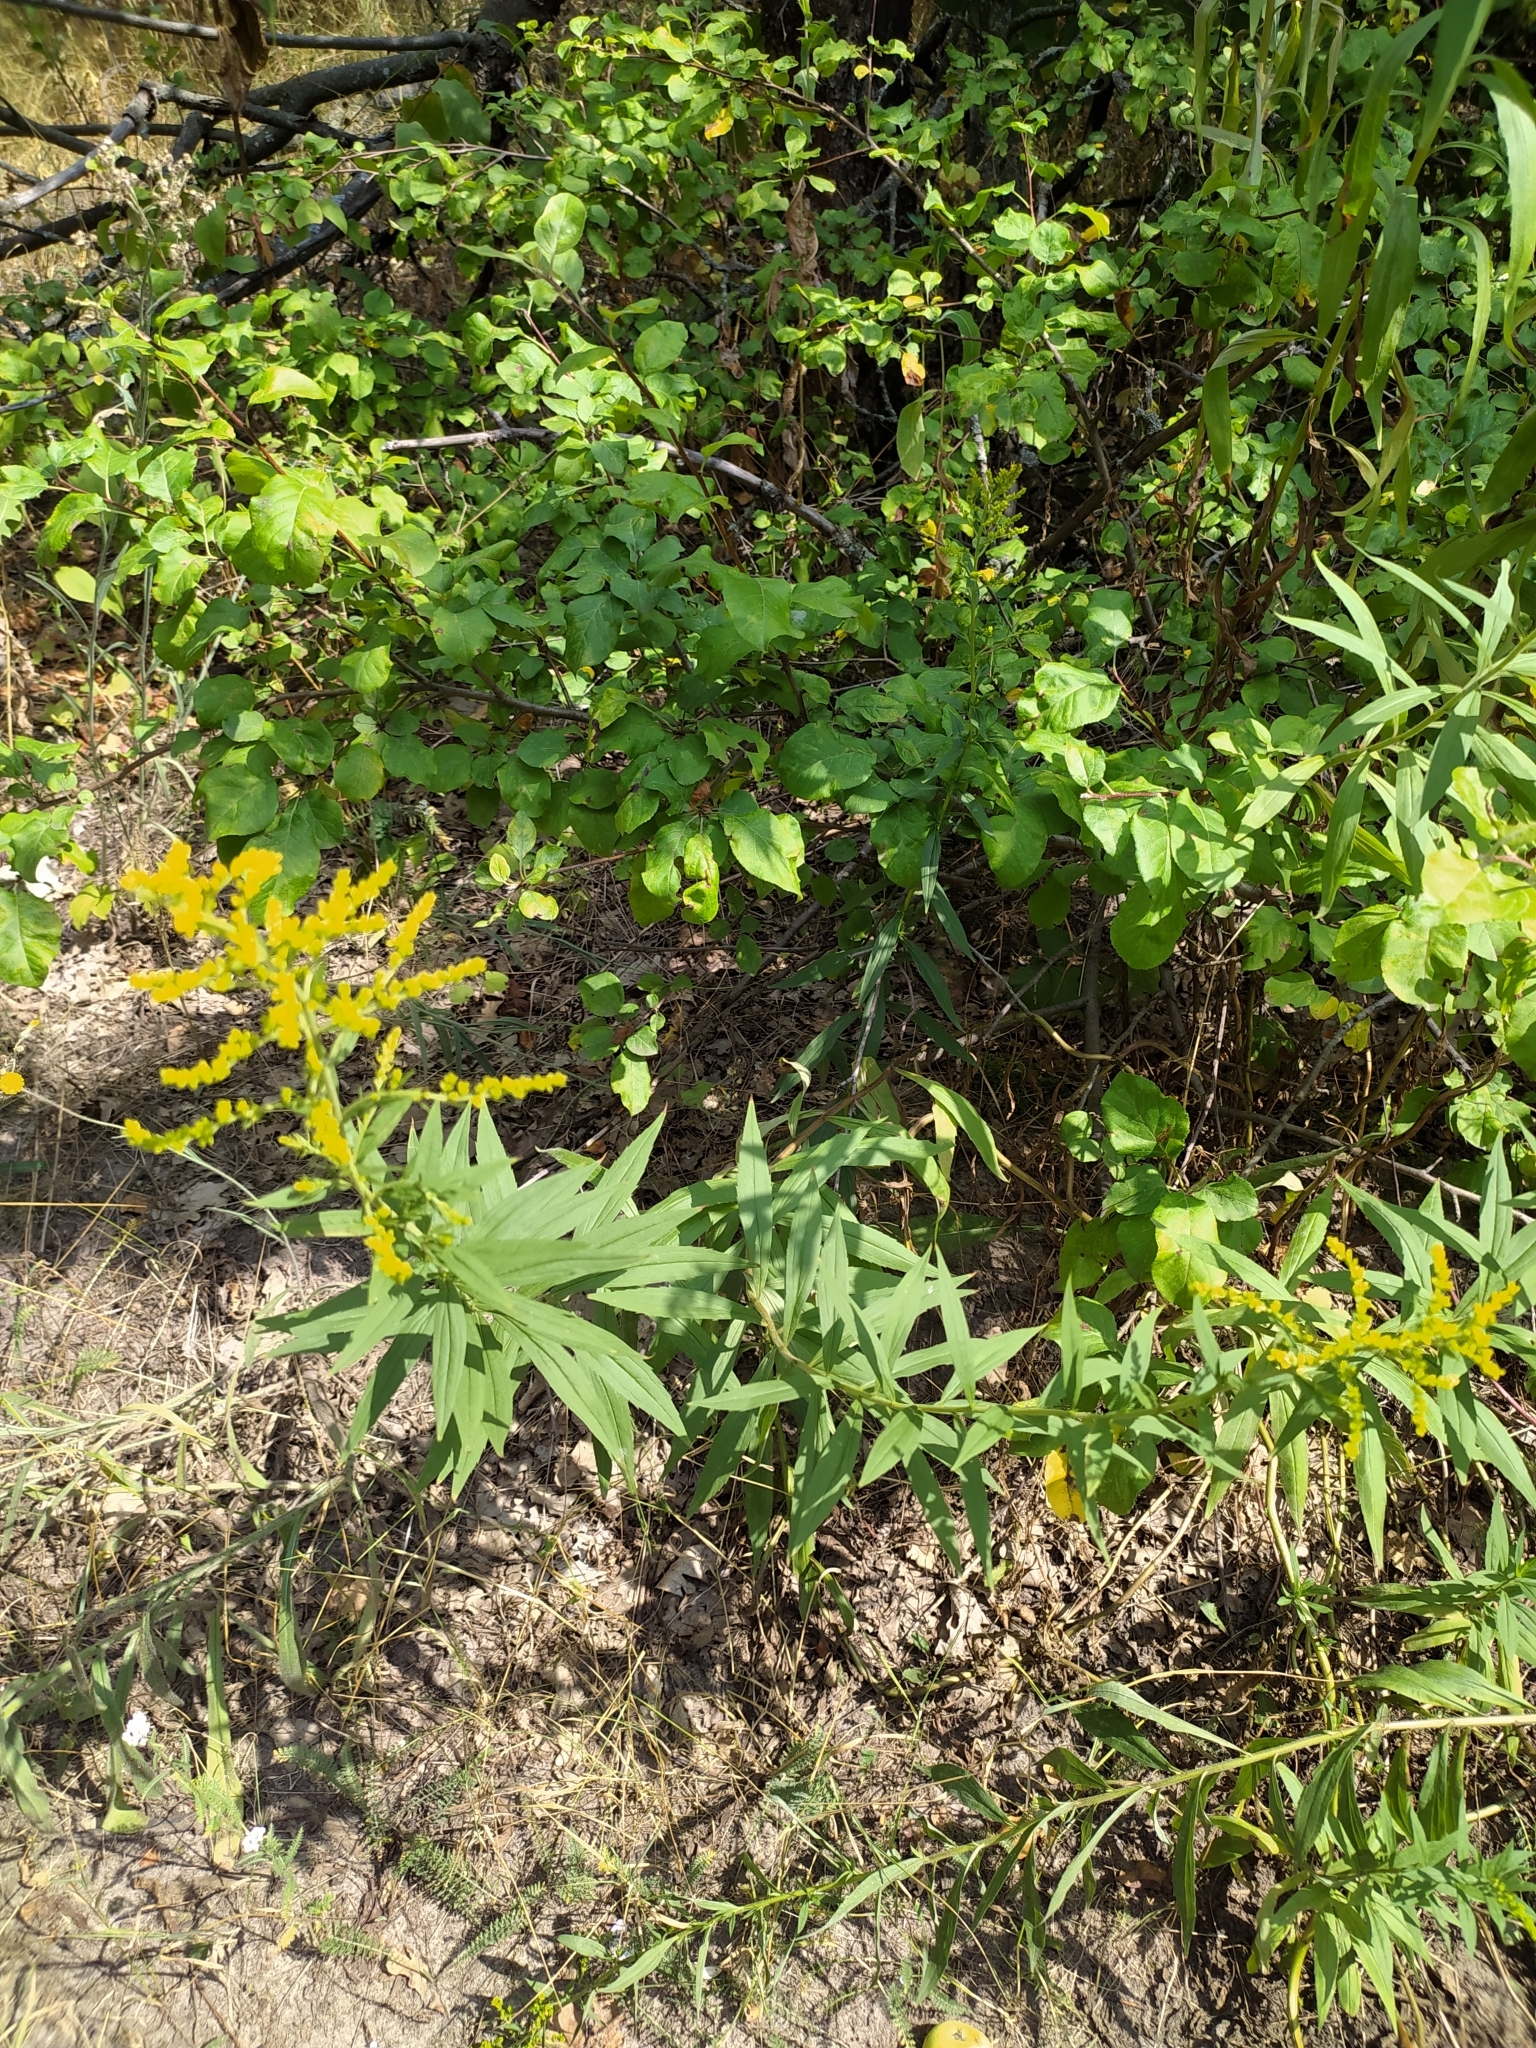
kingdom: Plantae
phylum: Tracheophyta
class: Magnoliopsida
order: Asterales
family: Asteraceae
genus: Solidago
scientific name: Solidago canadensis
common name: Canada goldenrod
